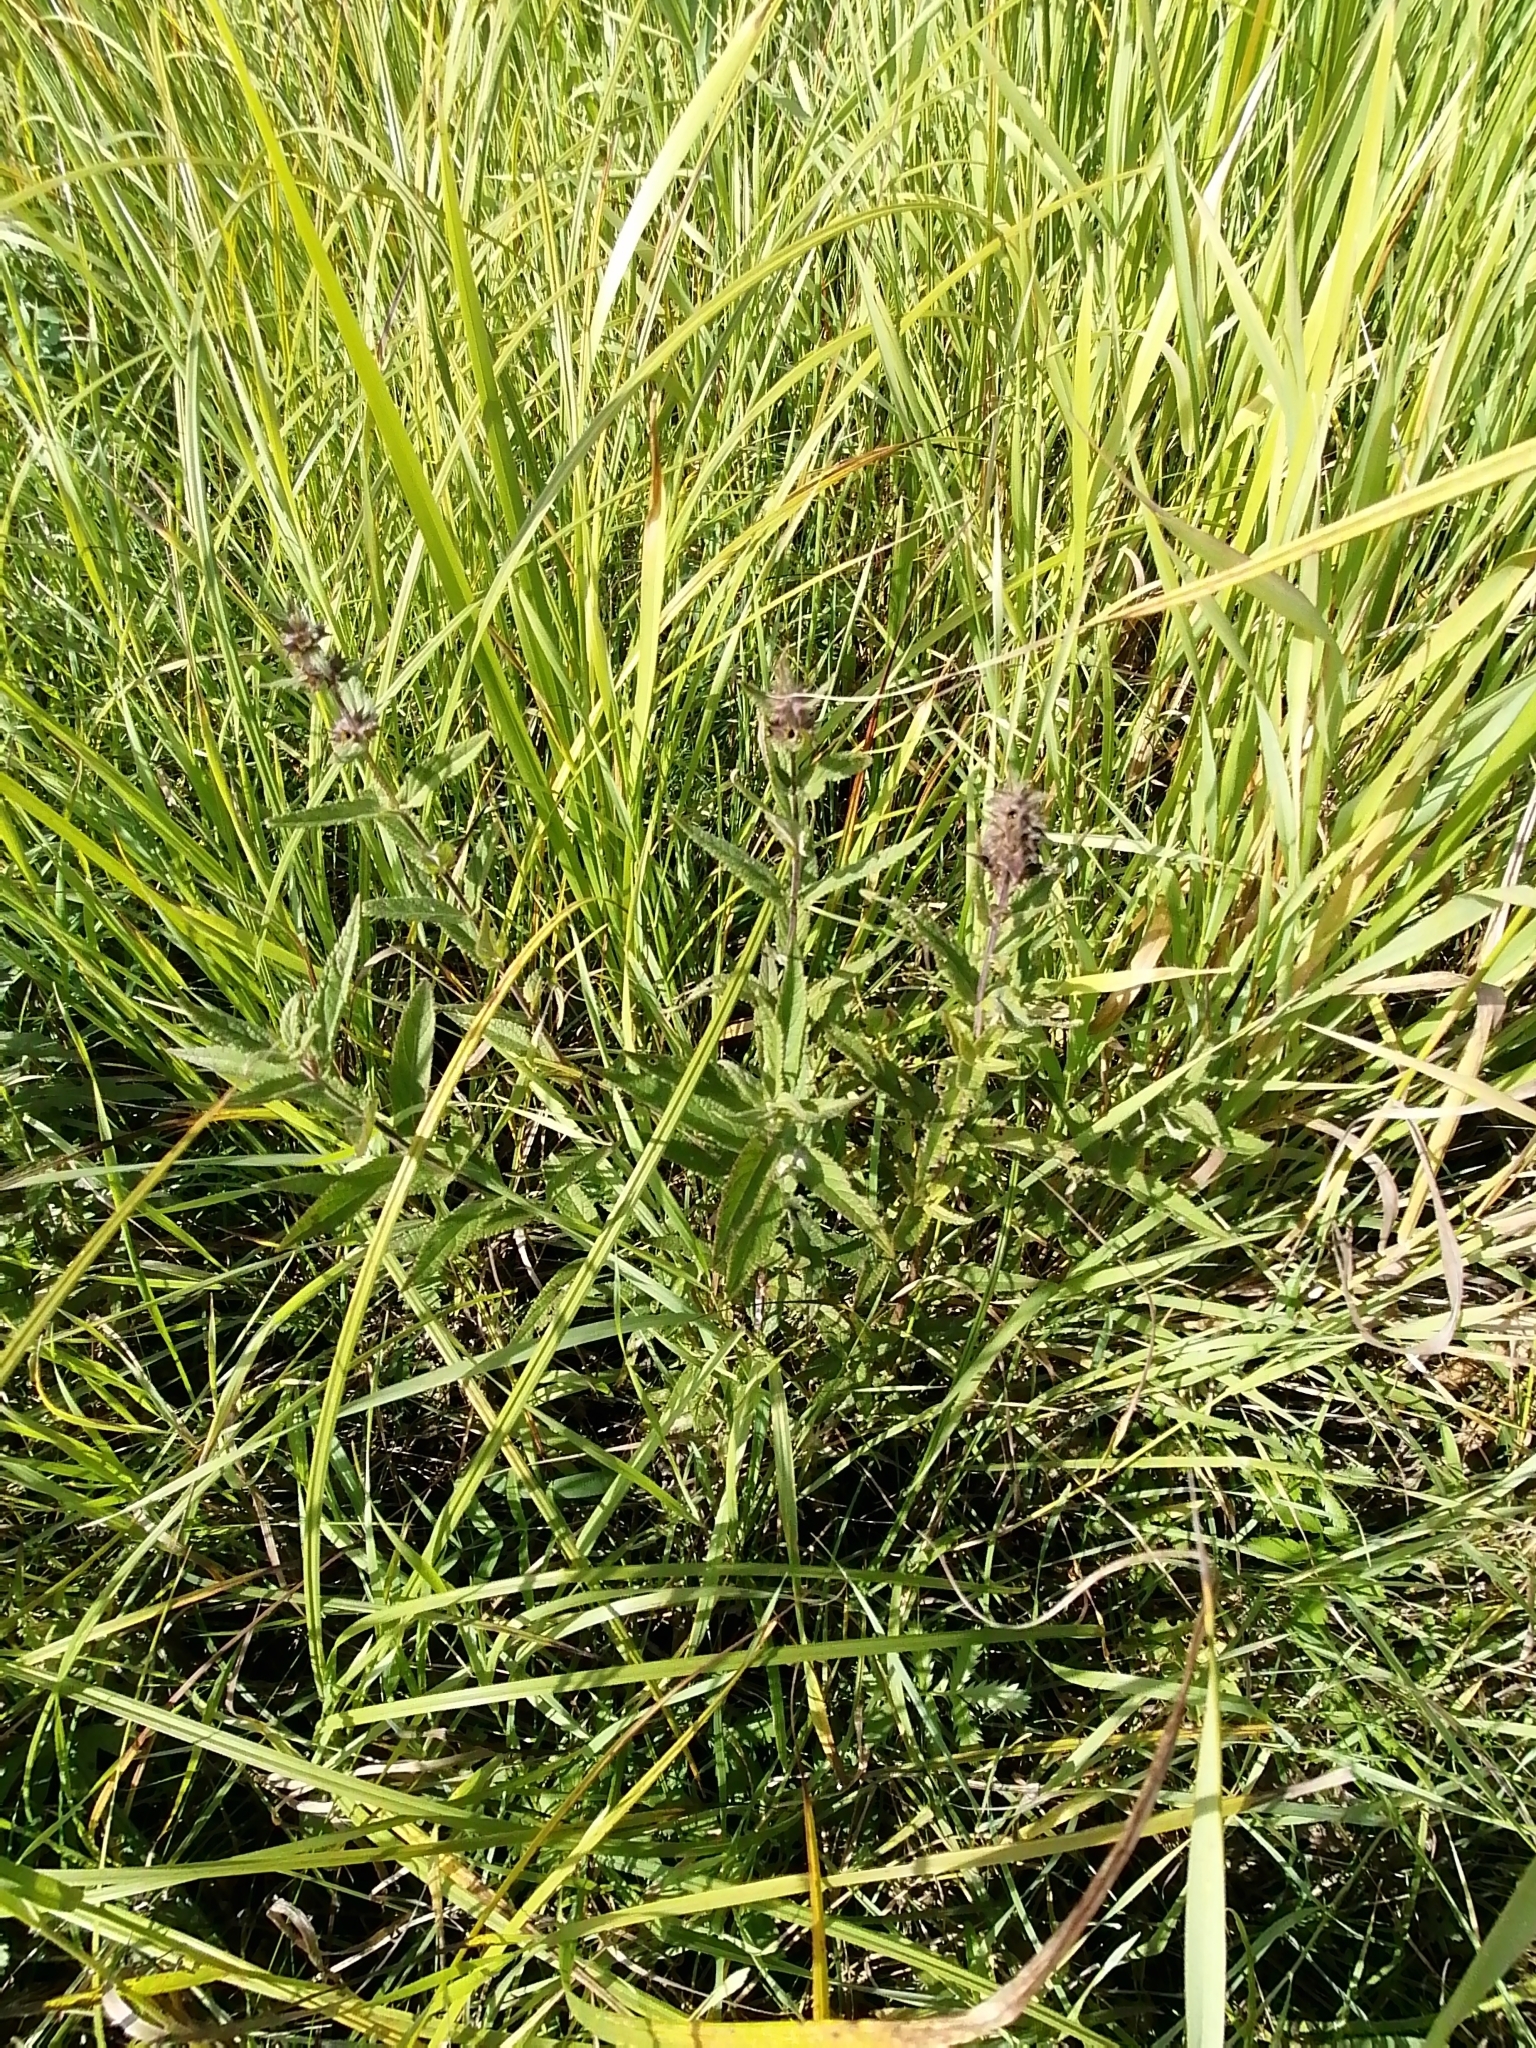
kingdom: Plantae
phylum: Tracheophyta
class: Magnoliopsida
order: Lamiales
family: Lamiaceae
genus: Stachys
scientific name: Stachys palustris
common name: Marsh woundwort
